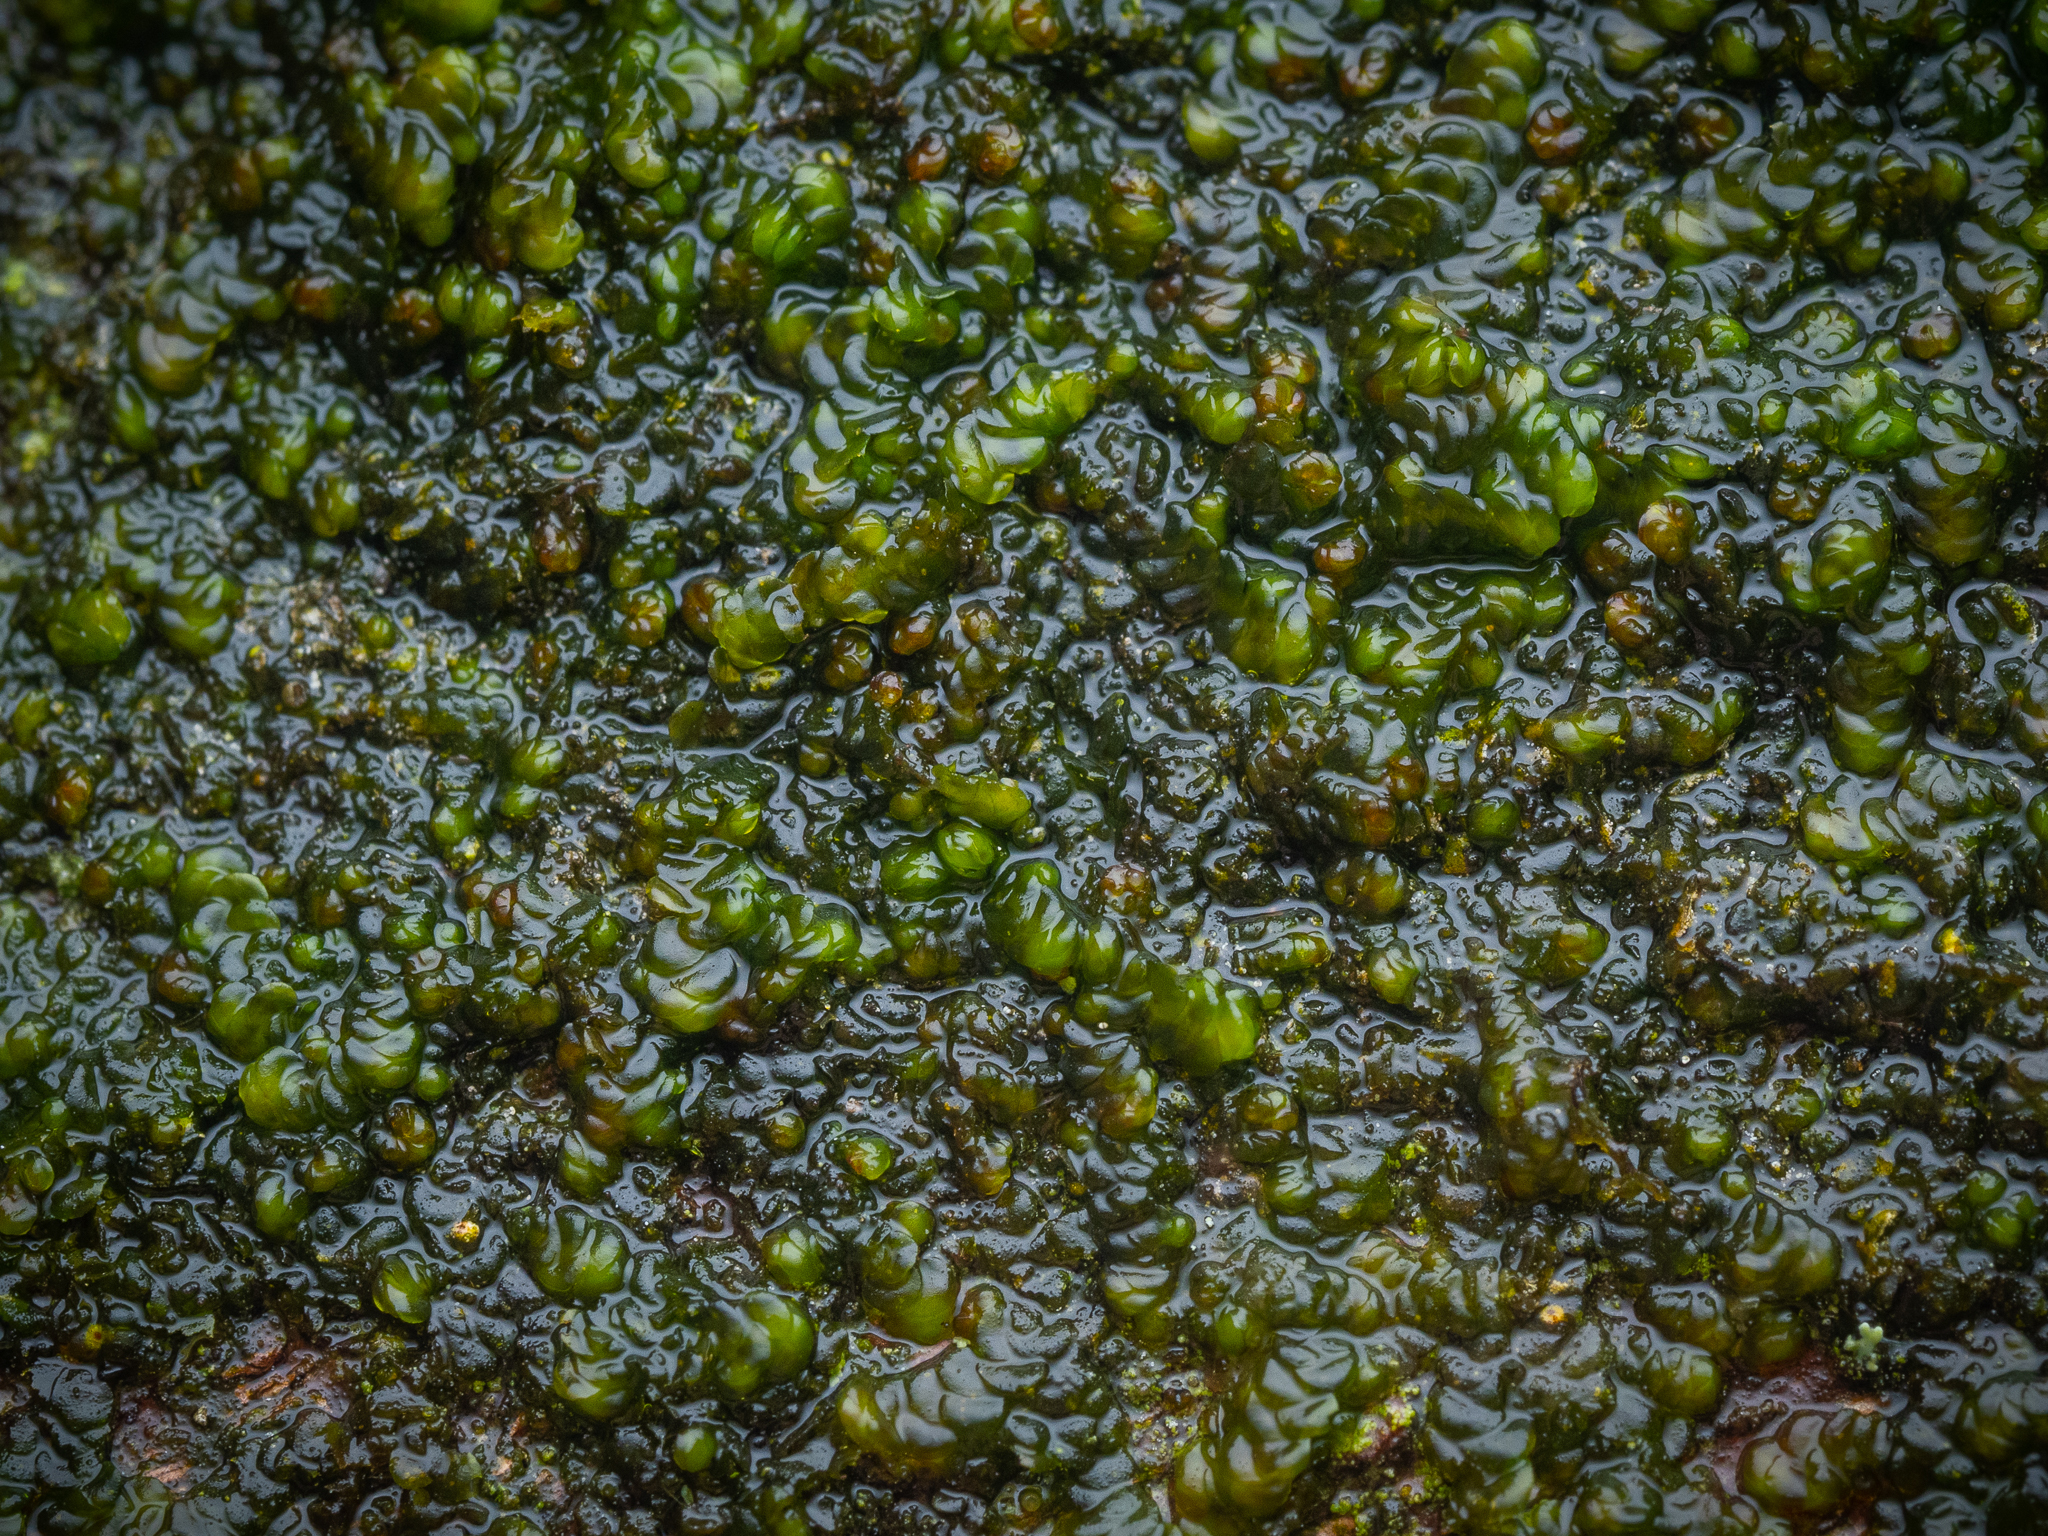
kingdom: Plantae
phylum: Marchantiophyta
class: Jungermanniopsida
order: Porellales
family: Frullaniaceae
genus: Frullania
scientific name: Frullania dilatata
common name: Dilated scalewort
